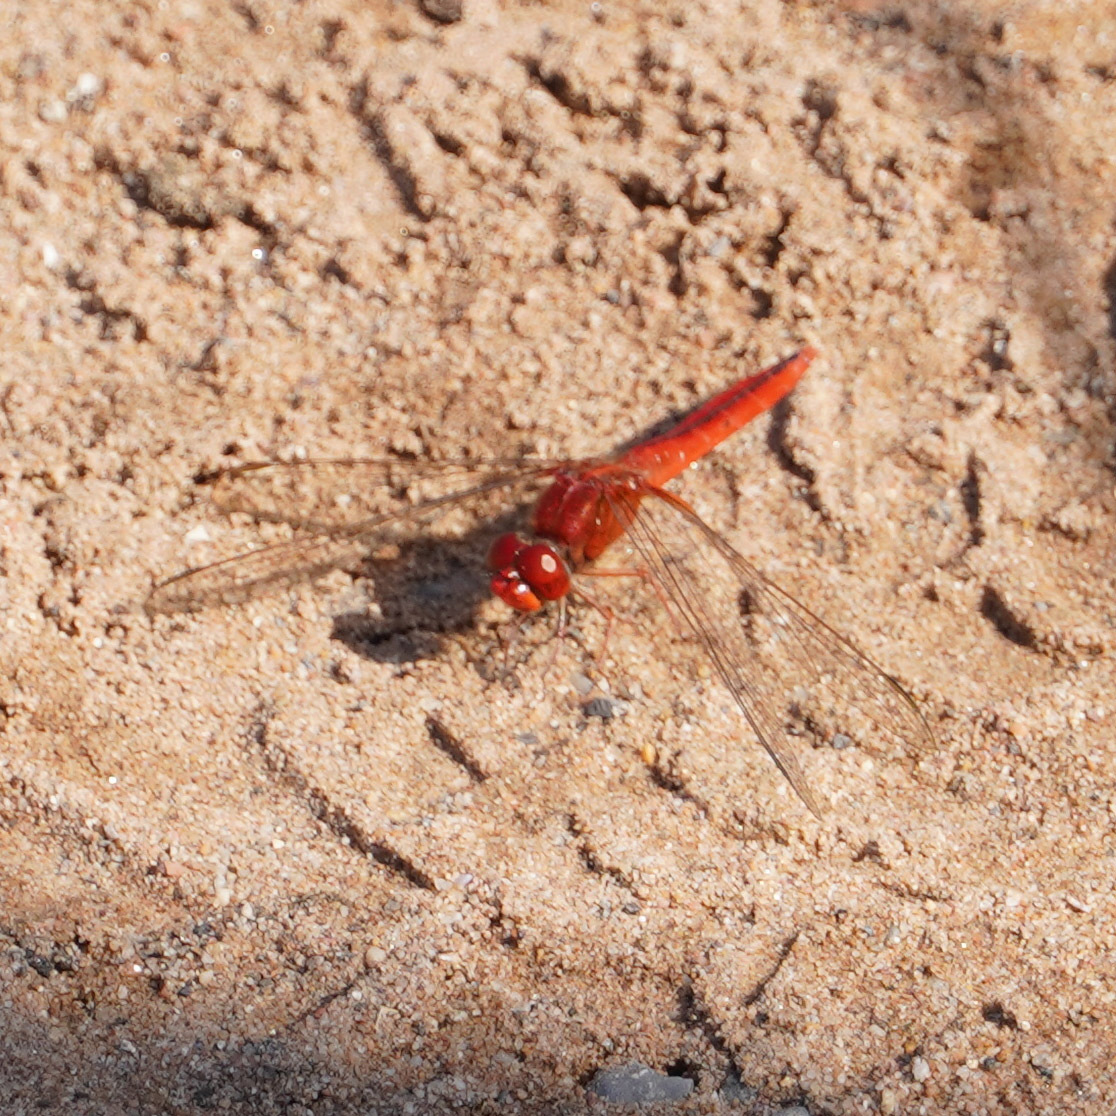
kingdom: Animalia
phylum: Arthropoda
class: Insecta
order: Odonata
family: Libellulidae
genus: Crocothemis
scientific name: Crocothemis servilia
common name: Scarlet skimmer
